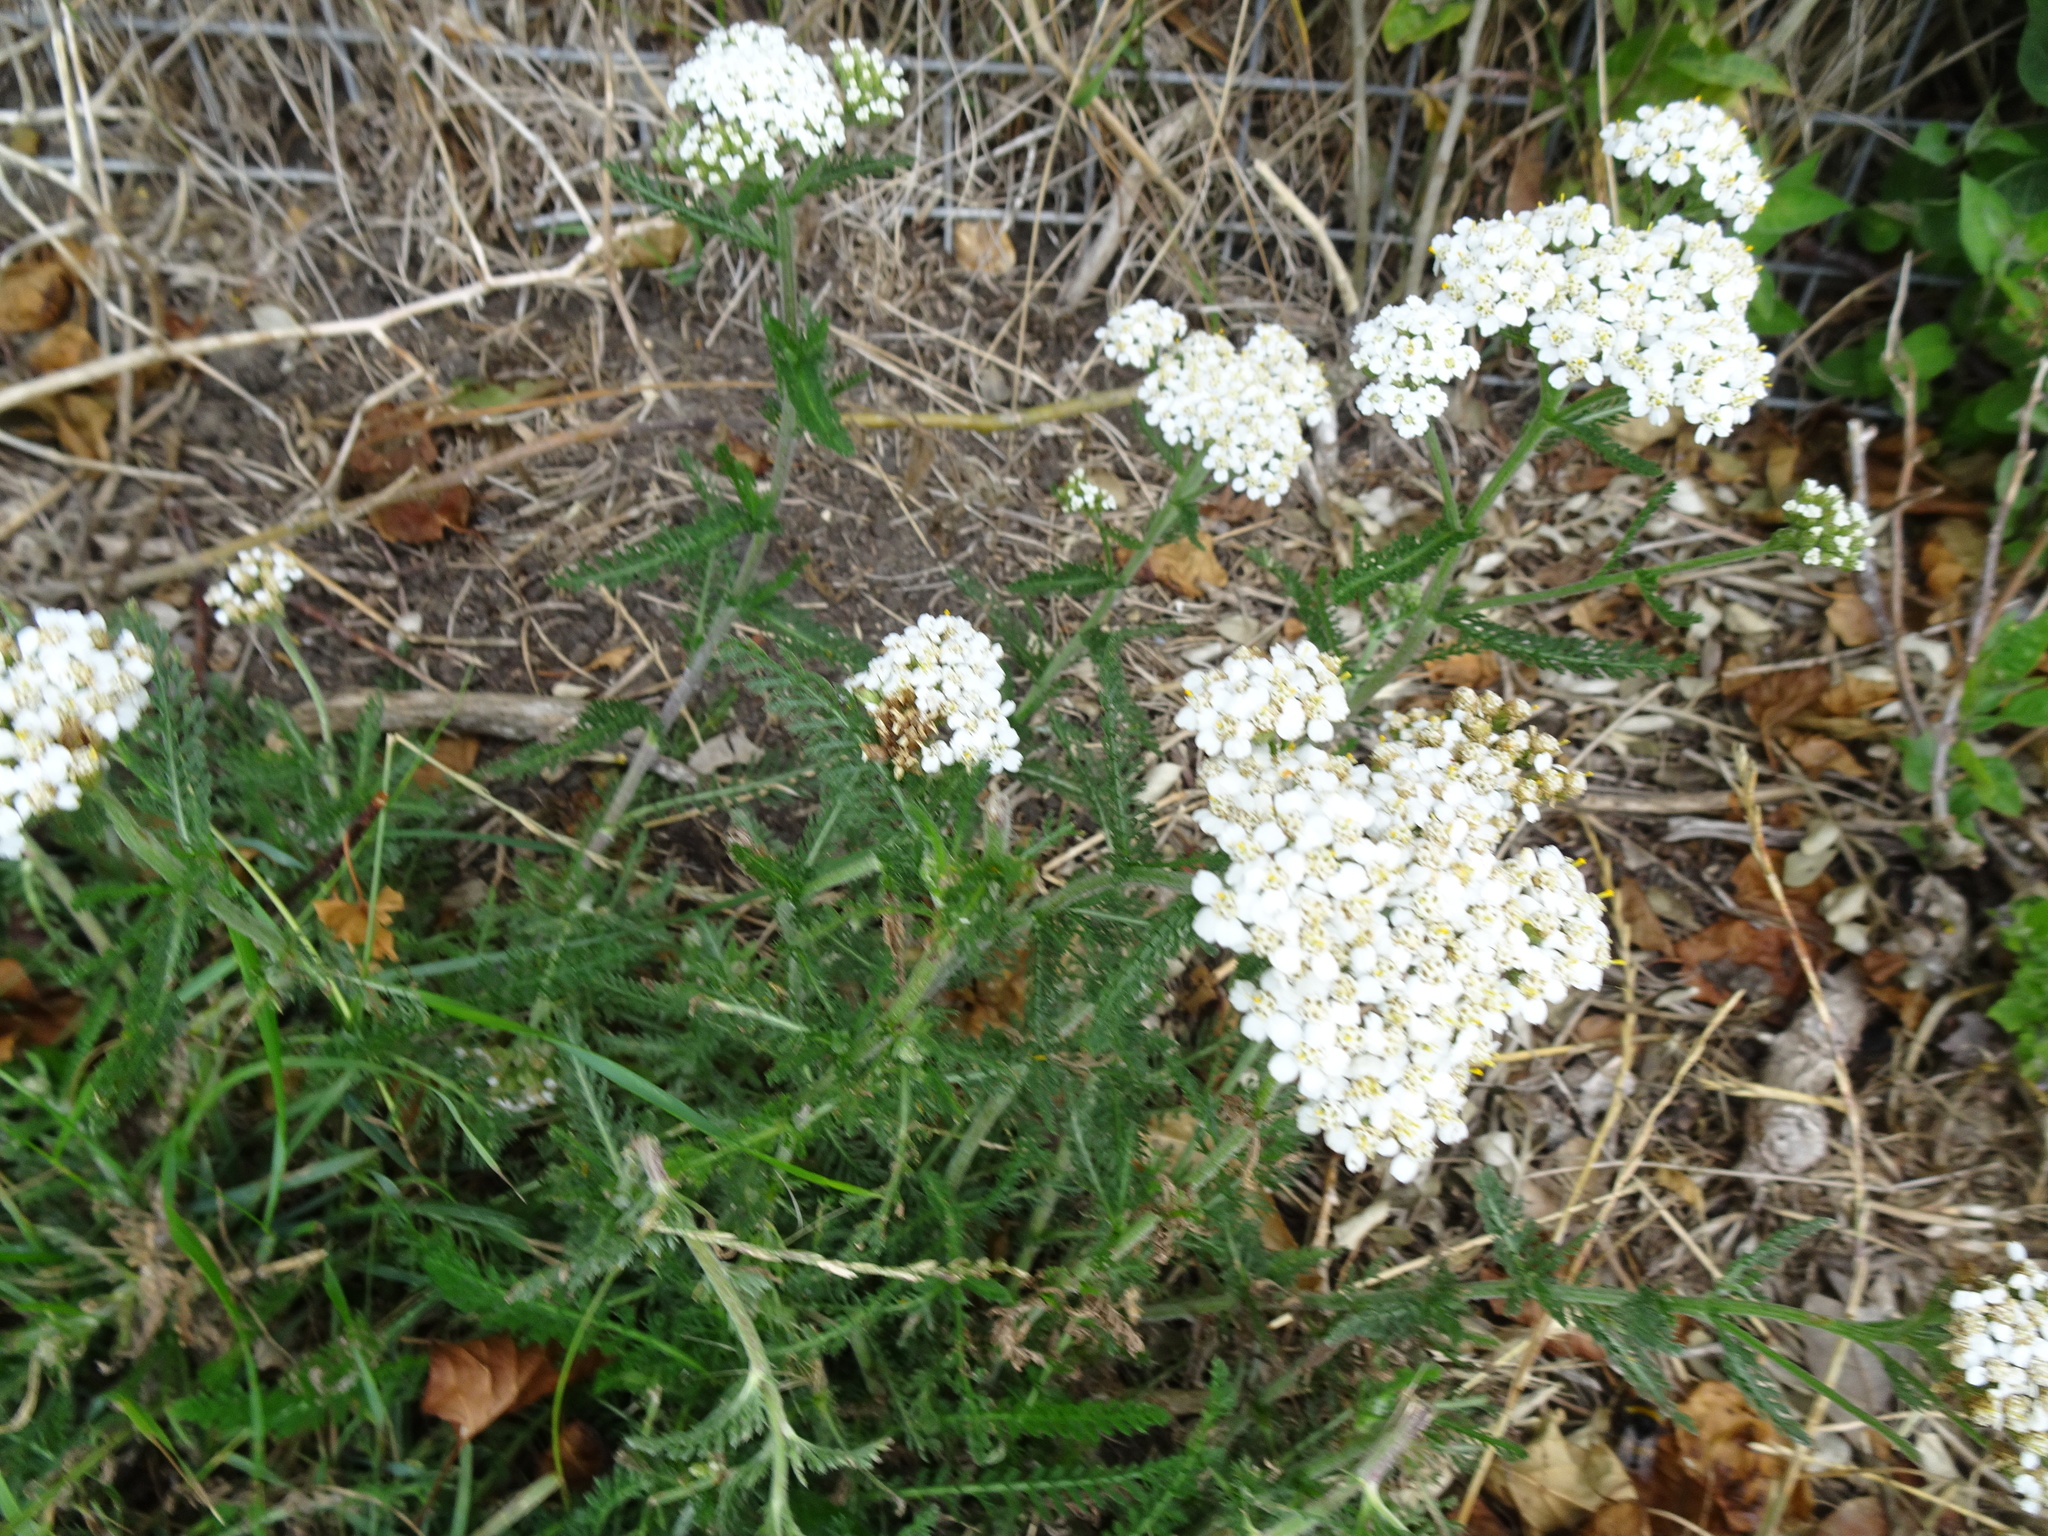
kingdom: Plantae
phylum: Tracheophyta
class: Magnoliopsida
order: Asterales
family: Asteraceae
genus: Achillea
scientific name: Achillea millefolium
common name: Yarrow
